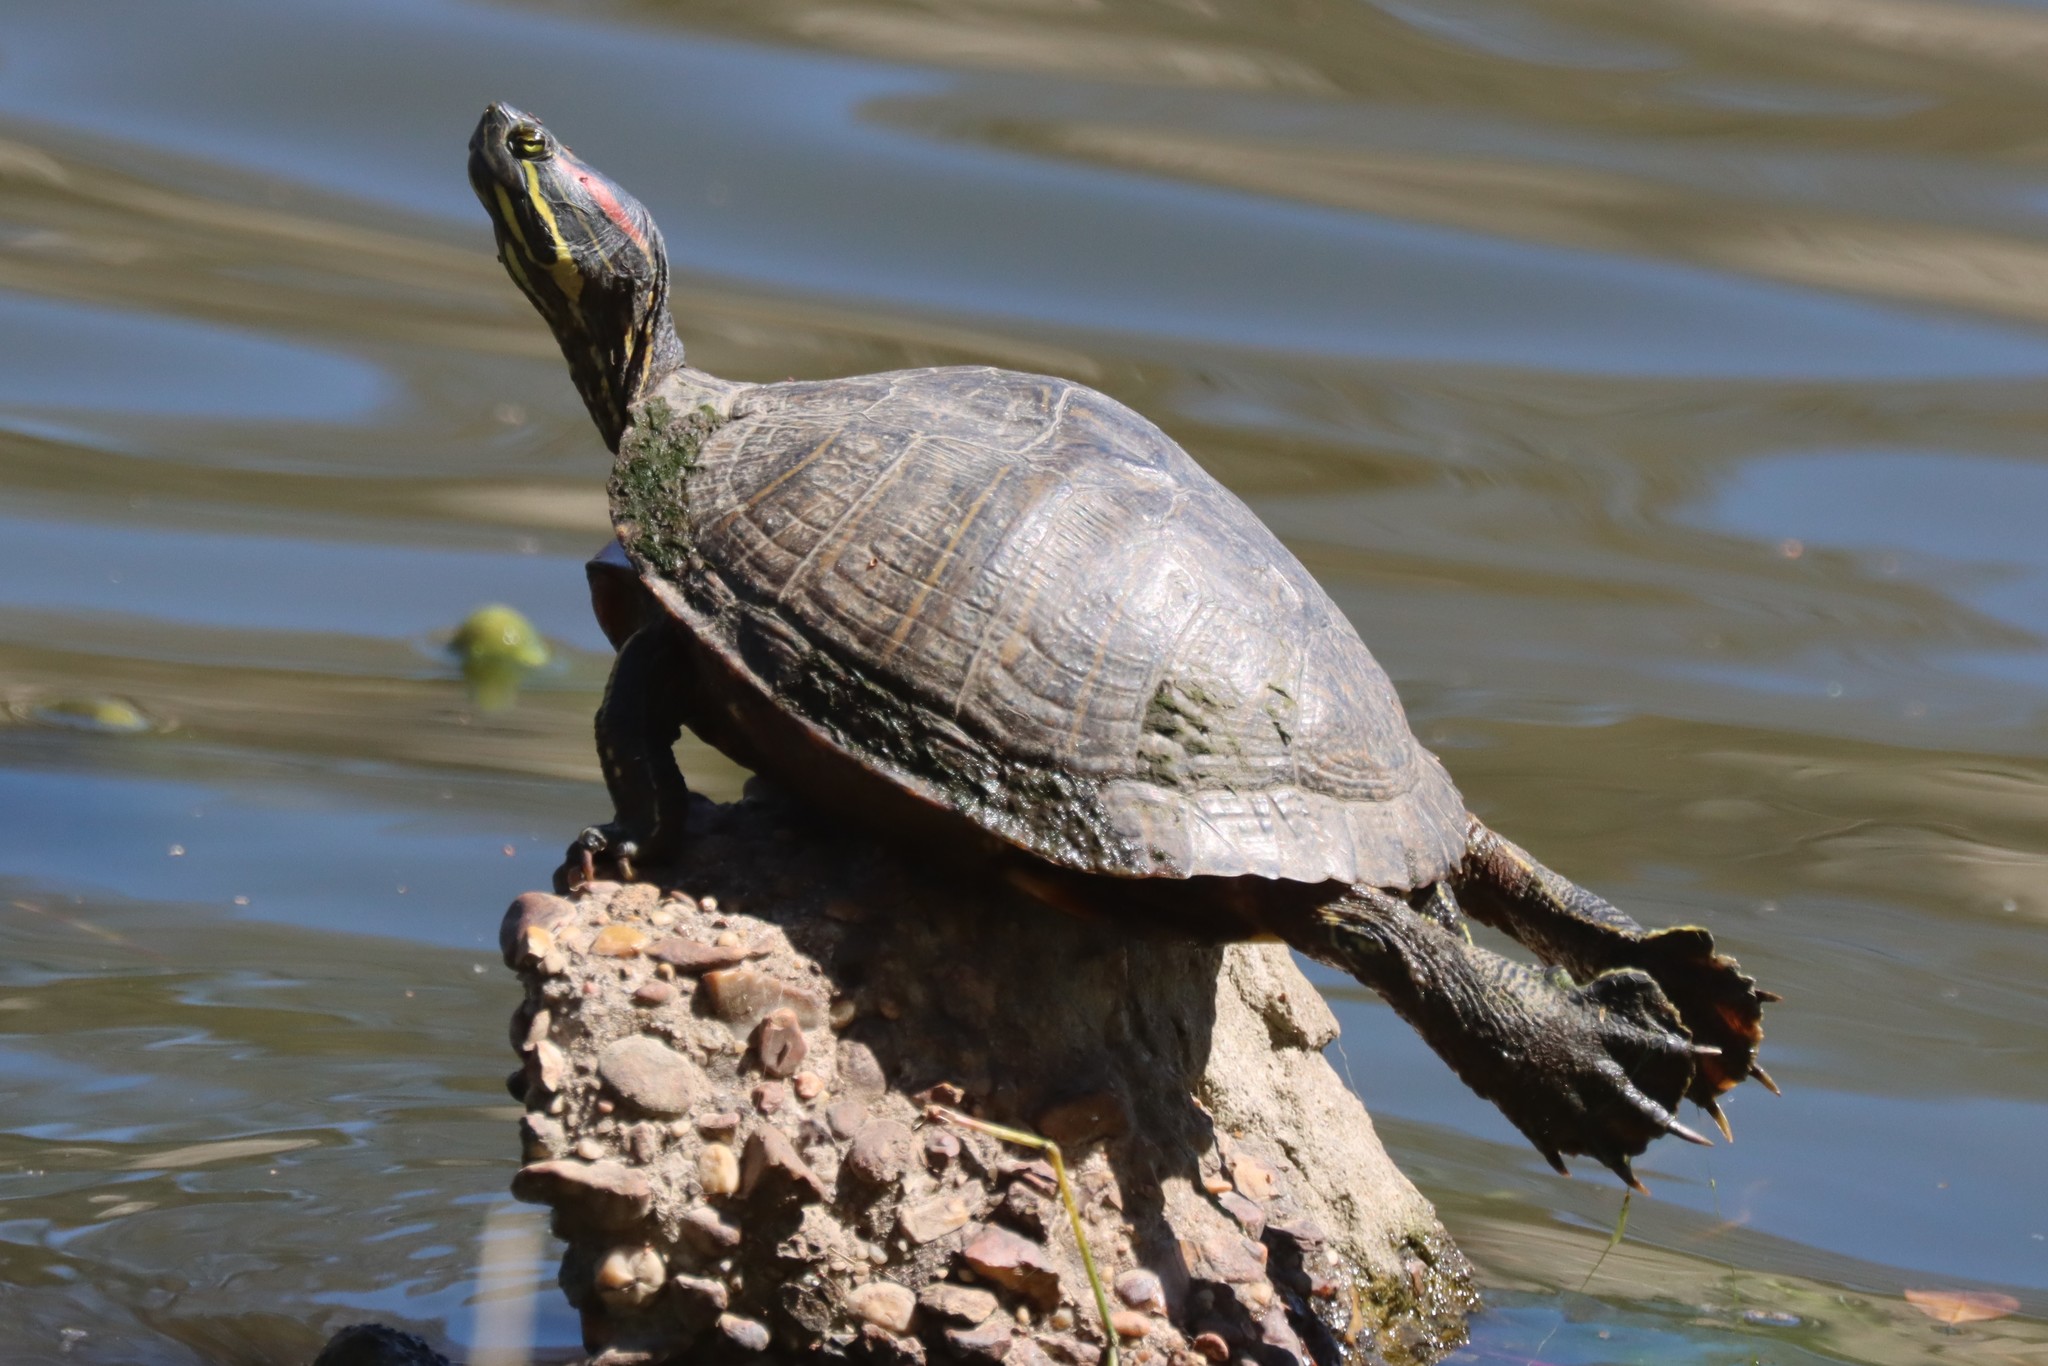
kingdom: Animalia
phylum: Chordata
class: Testudines
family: Emydidae
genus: Trachemys
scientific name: Trachemys scripta
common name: Slider
